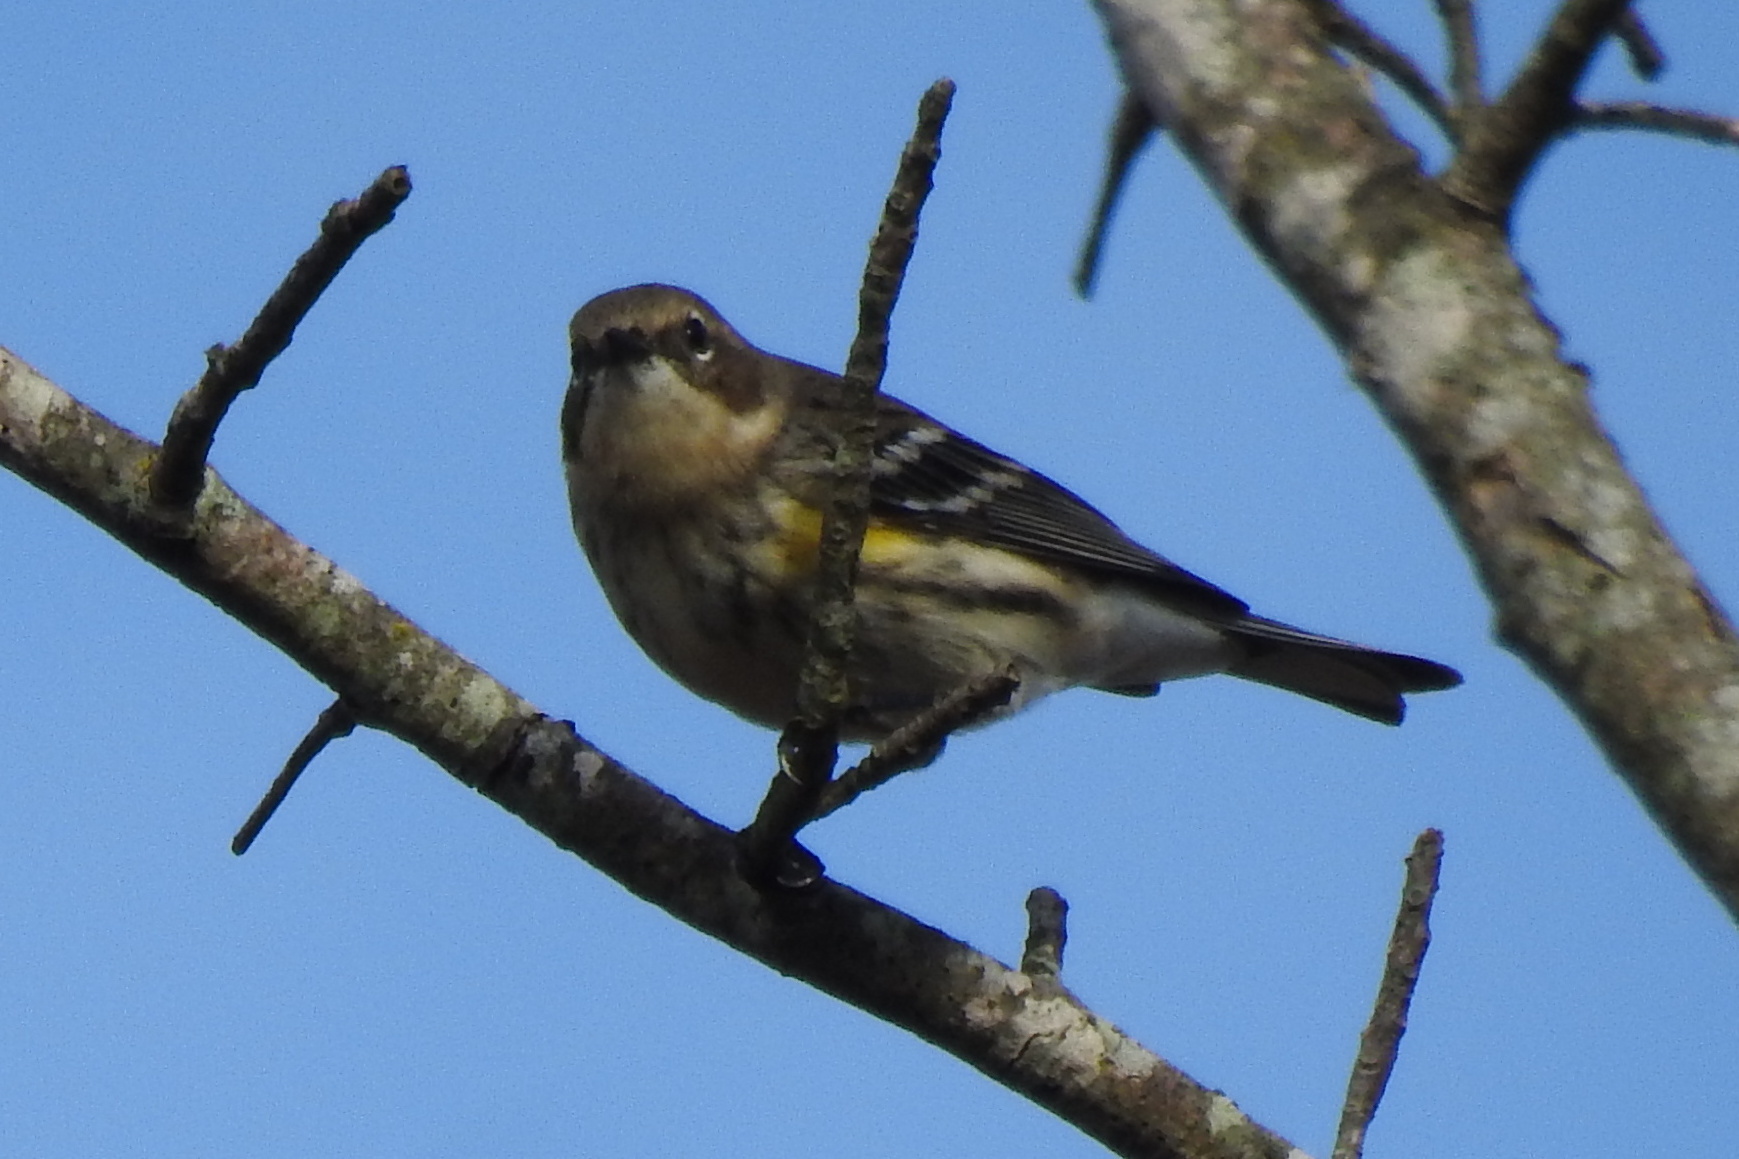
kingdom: Animalia
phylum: Chordata
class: Aves
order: Passeriformes
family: Parulidae
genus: Setophaga
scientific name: Setophaga coronata
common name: Myrtle warbler
